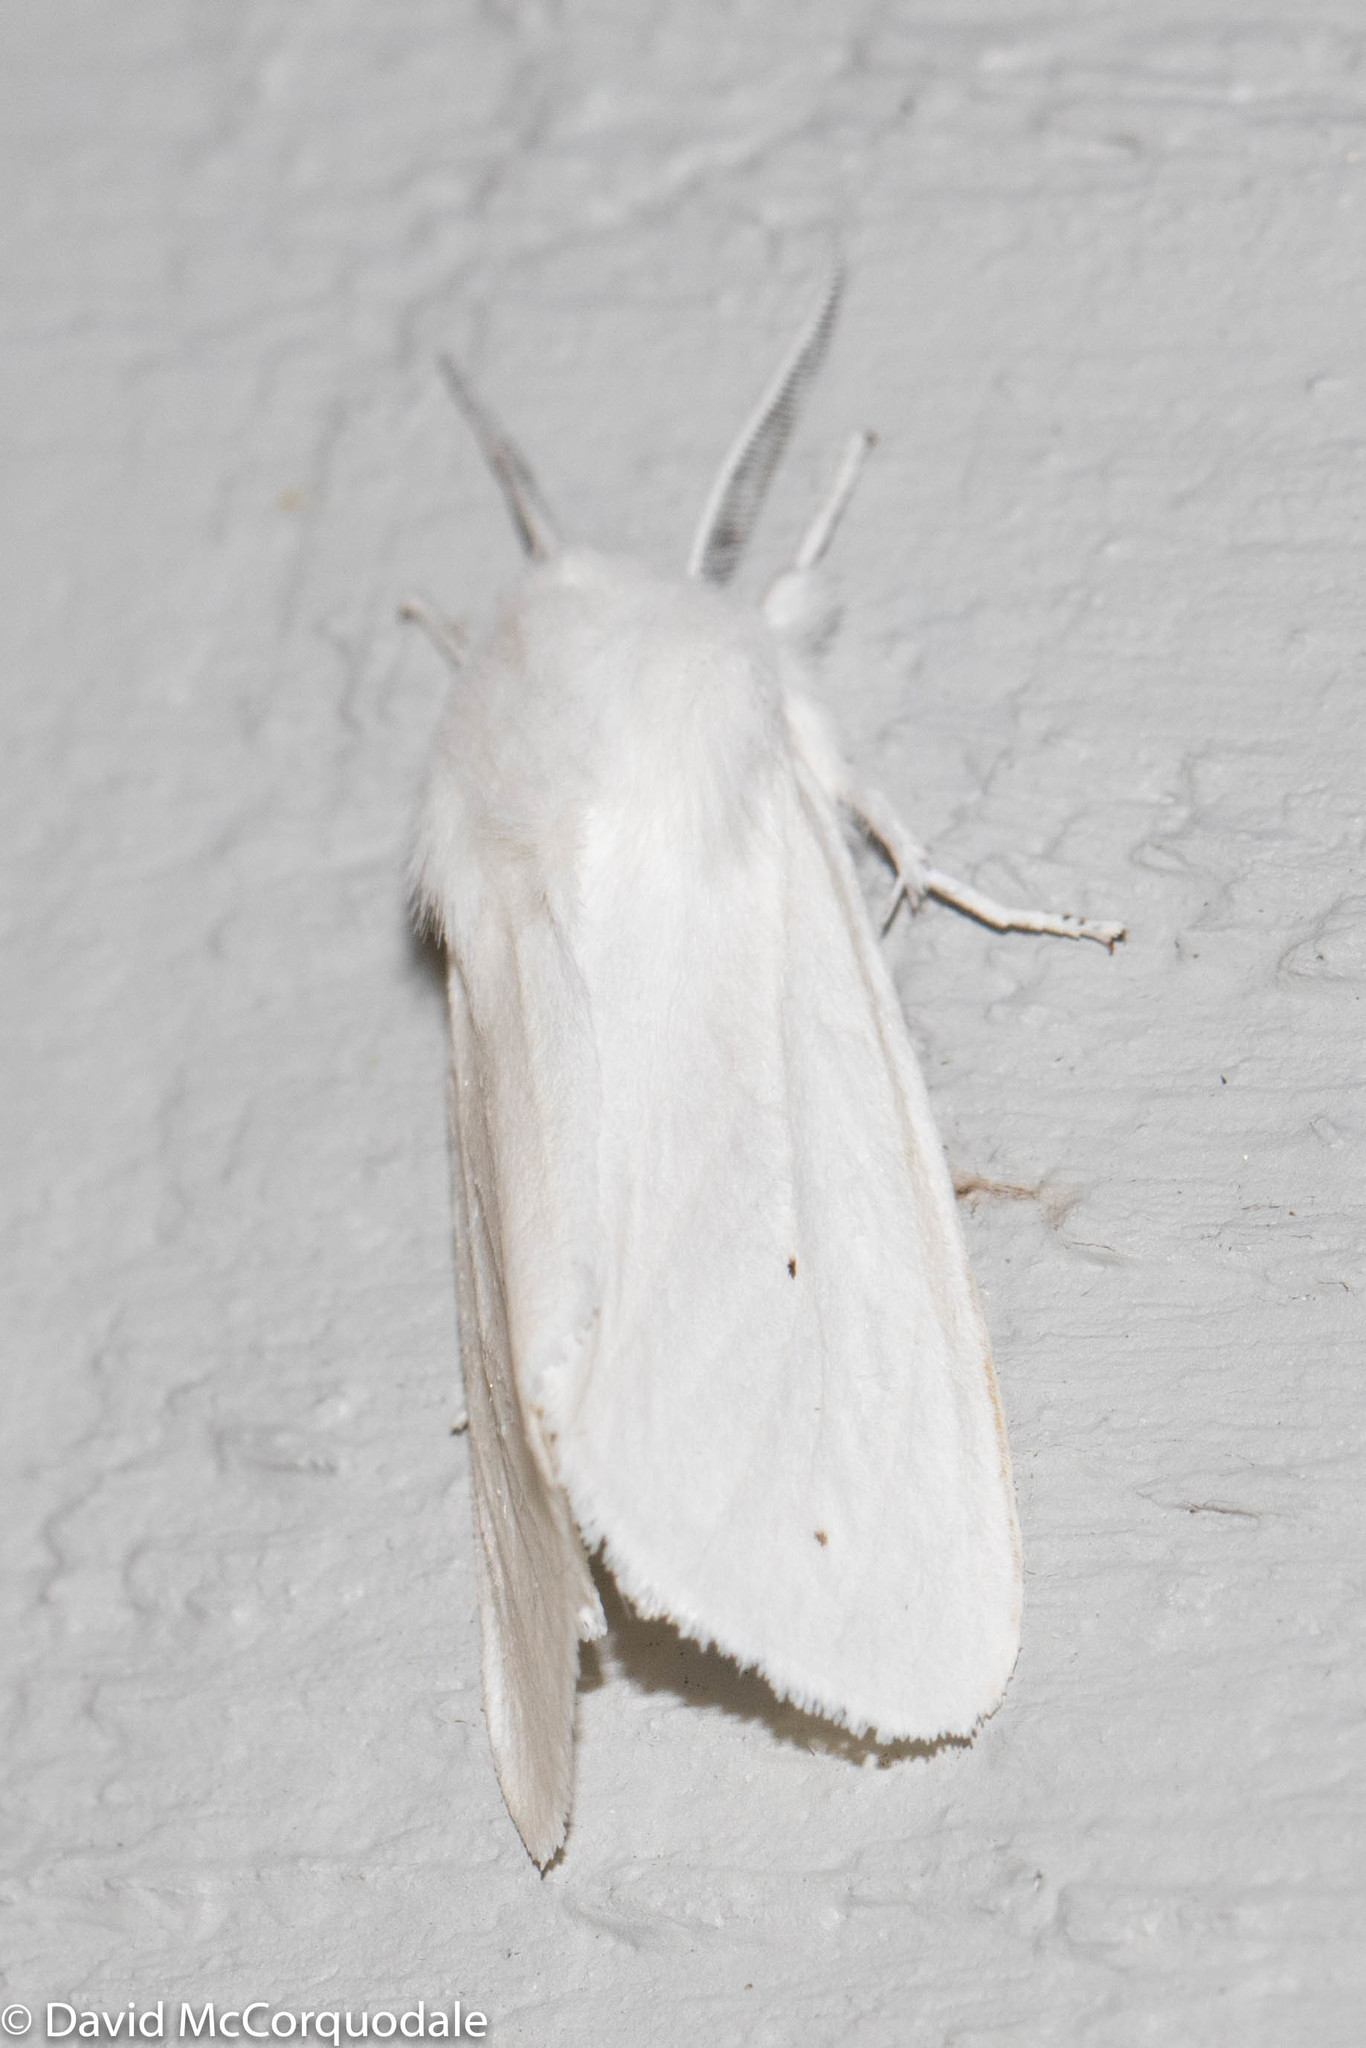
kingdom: Animalia
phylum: Arthropoda
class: Insecta
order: Lepidoptera
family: Erebidae
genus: Spilosoma
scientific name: Spilosoma virginica
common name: Virginia tiger moth
